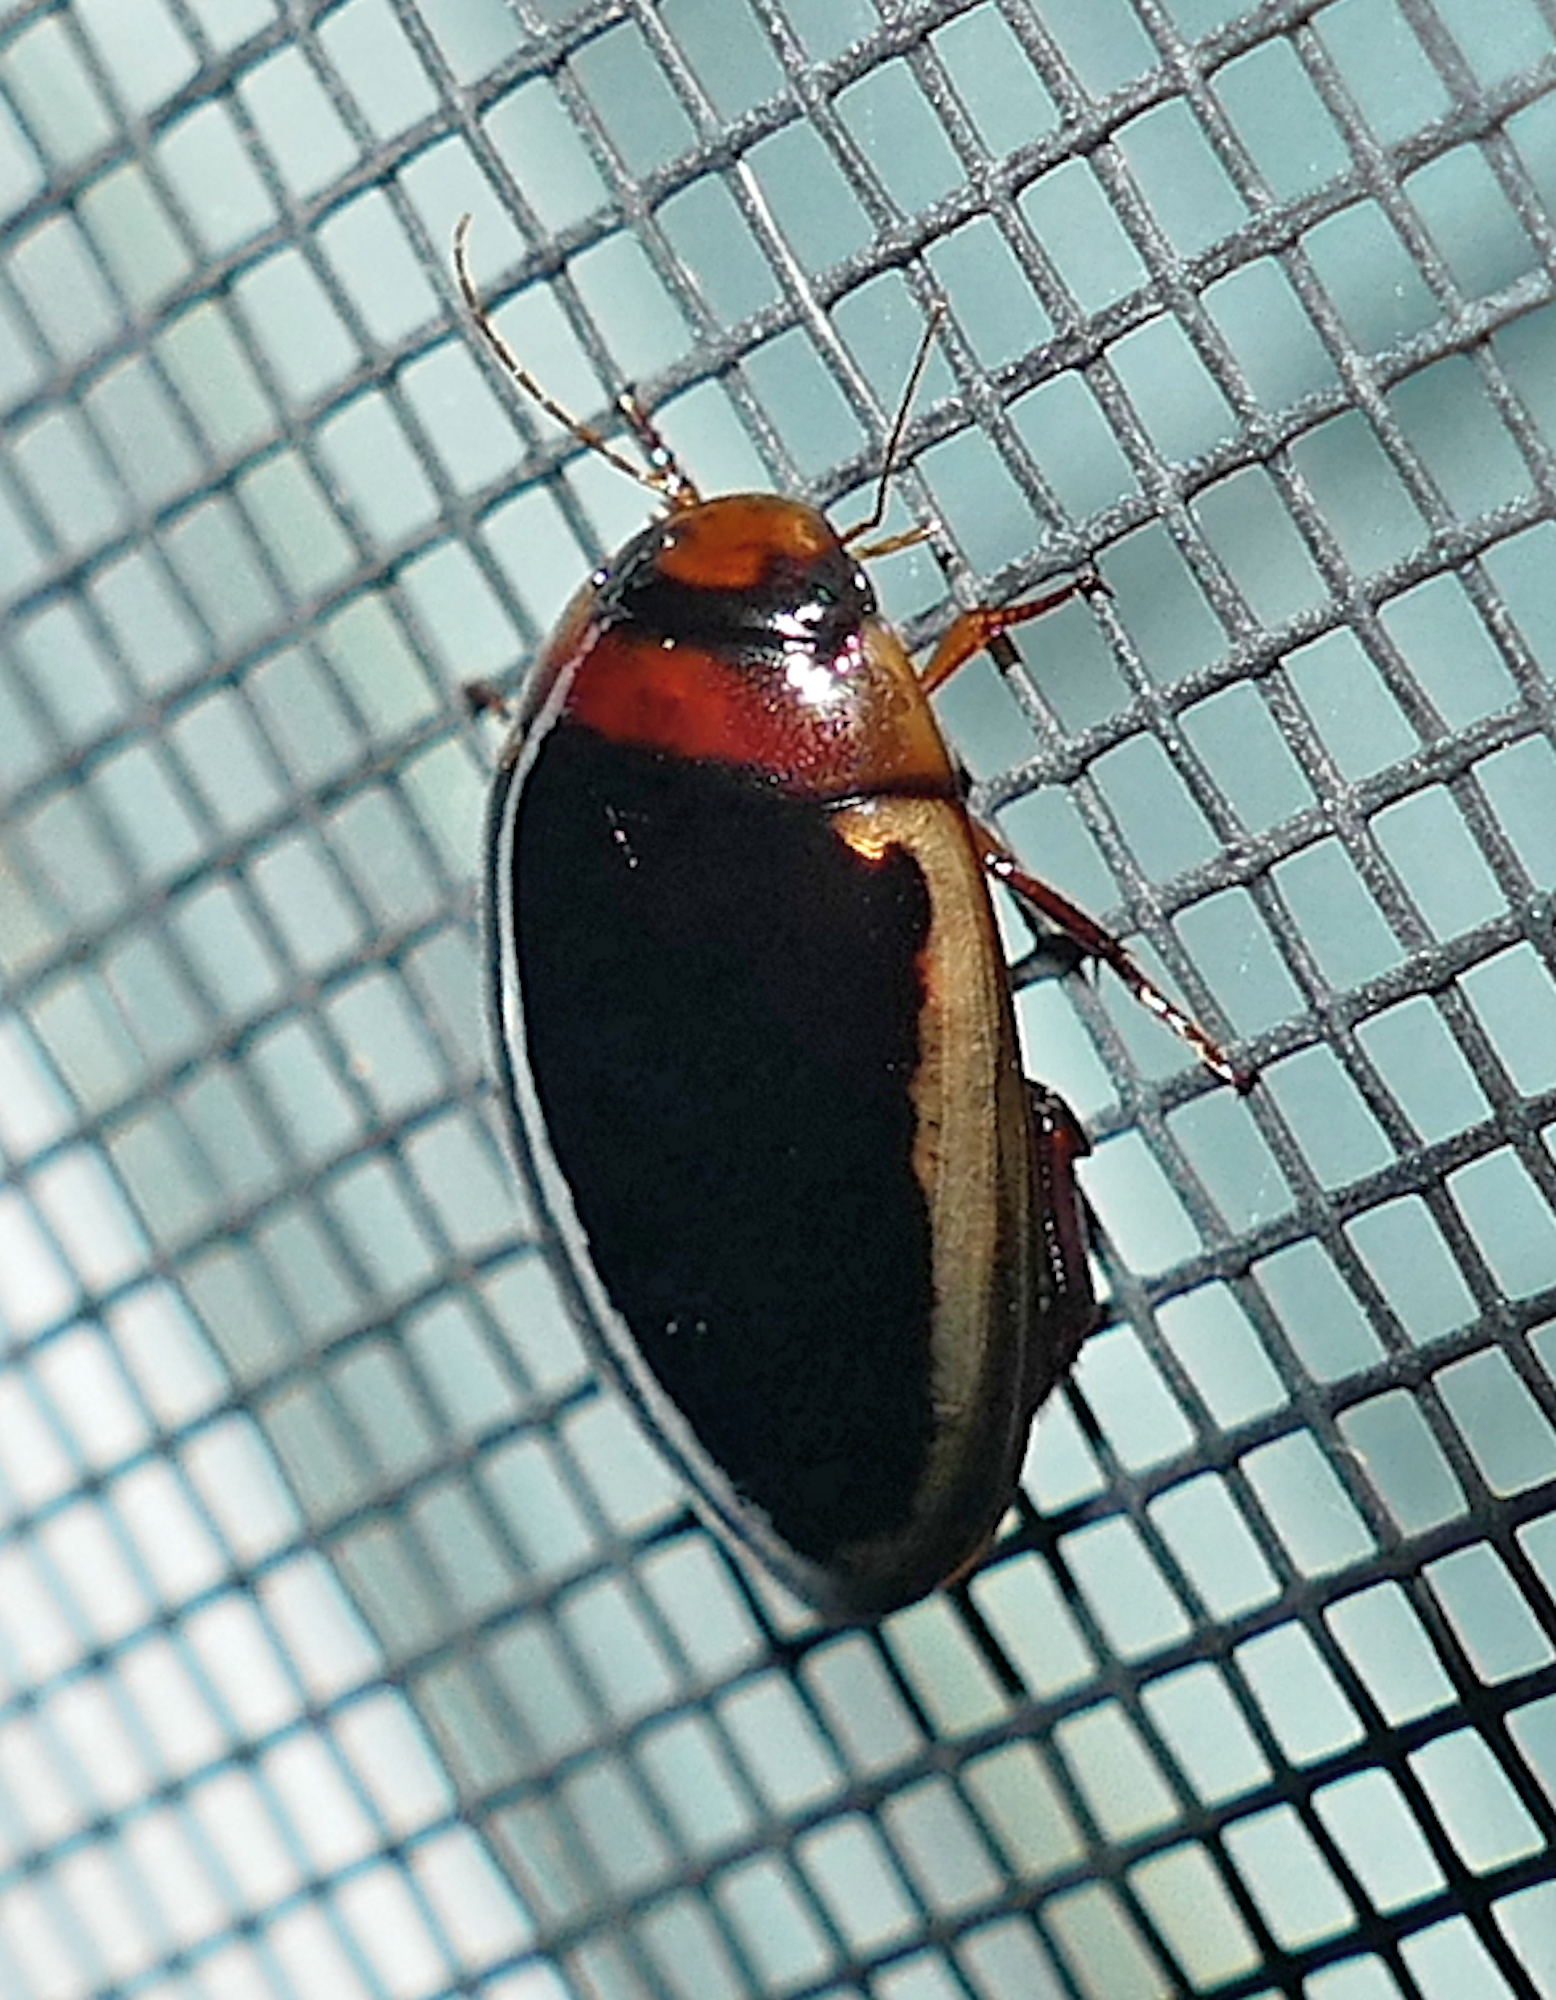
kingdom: Animalia
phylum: Arthropoda
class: Insecta
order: Coleoptera
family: Dytiscidae
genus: Hydaticus
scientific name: Hydaticus bimarginatus
